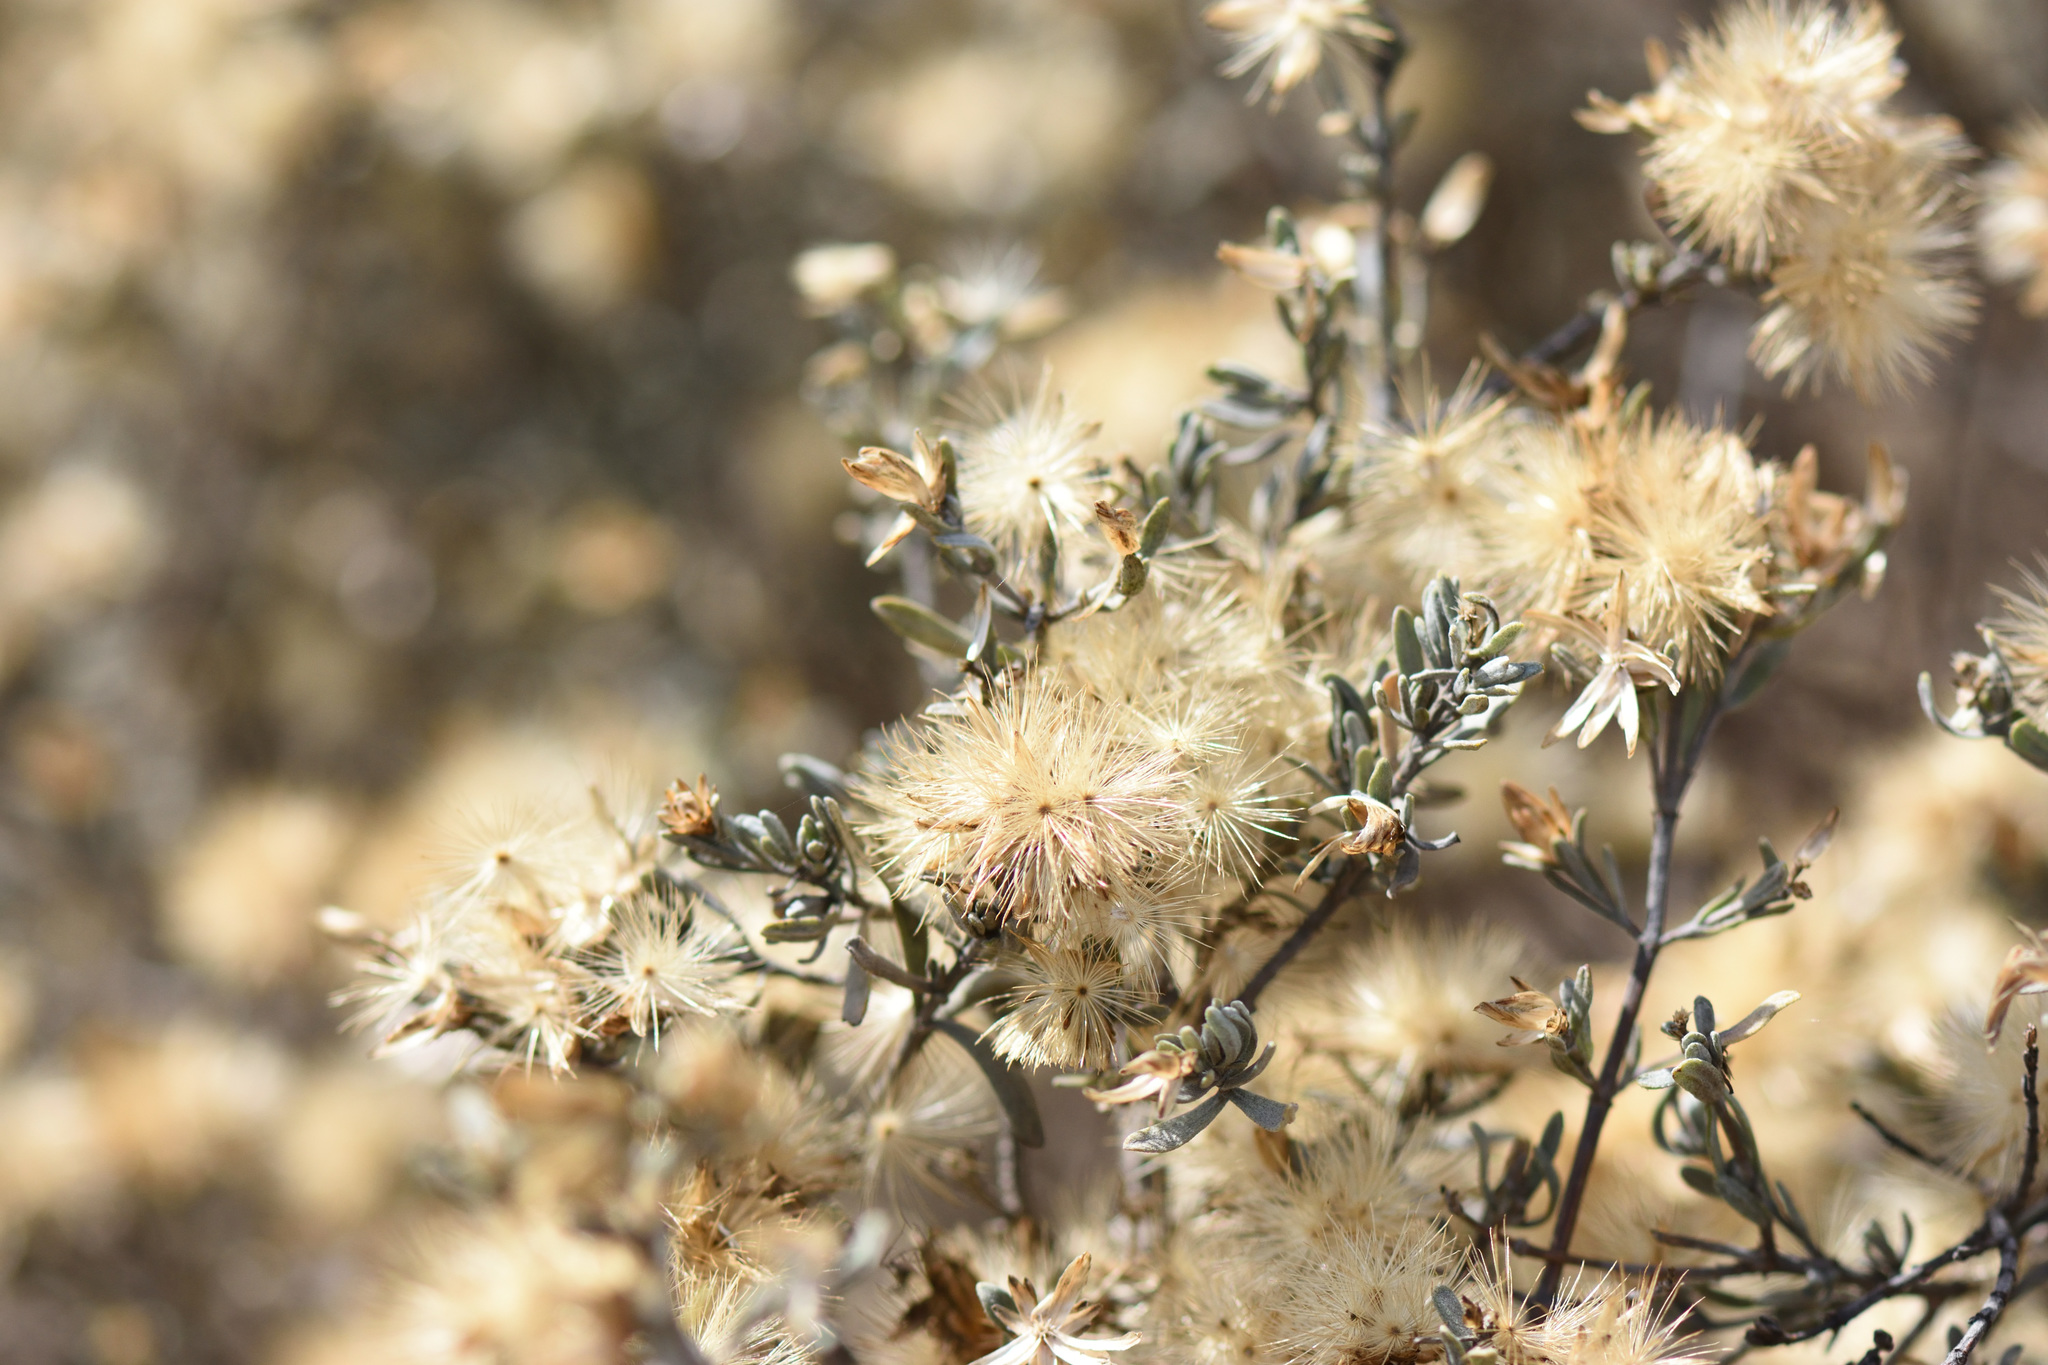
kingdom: Plantae
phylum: Tracheophyta
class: Magnoliopsida
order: Asterales
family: Asteraceae
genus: Pteronia
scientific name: Pteronia incana
